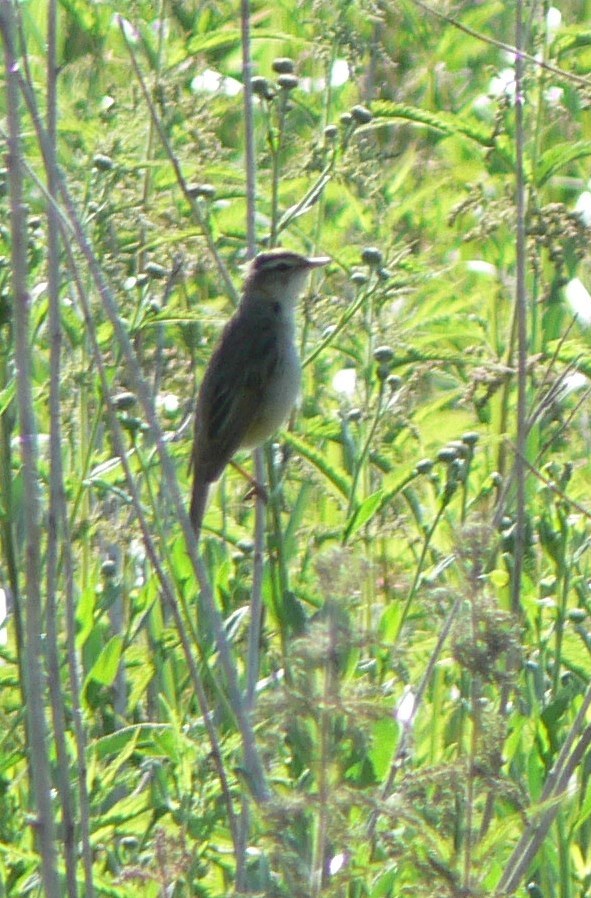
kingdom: Animalia
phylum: Chordata
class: Aves
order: Passeriformes
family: Acrocephalidae
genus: Acrocephalus
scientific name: Acrocephalus schoenobaenus
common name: Sedge warbler
